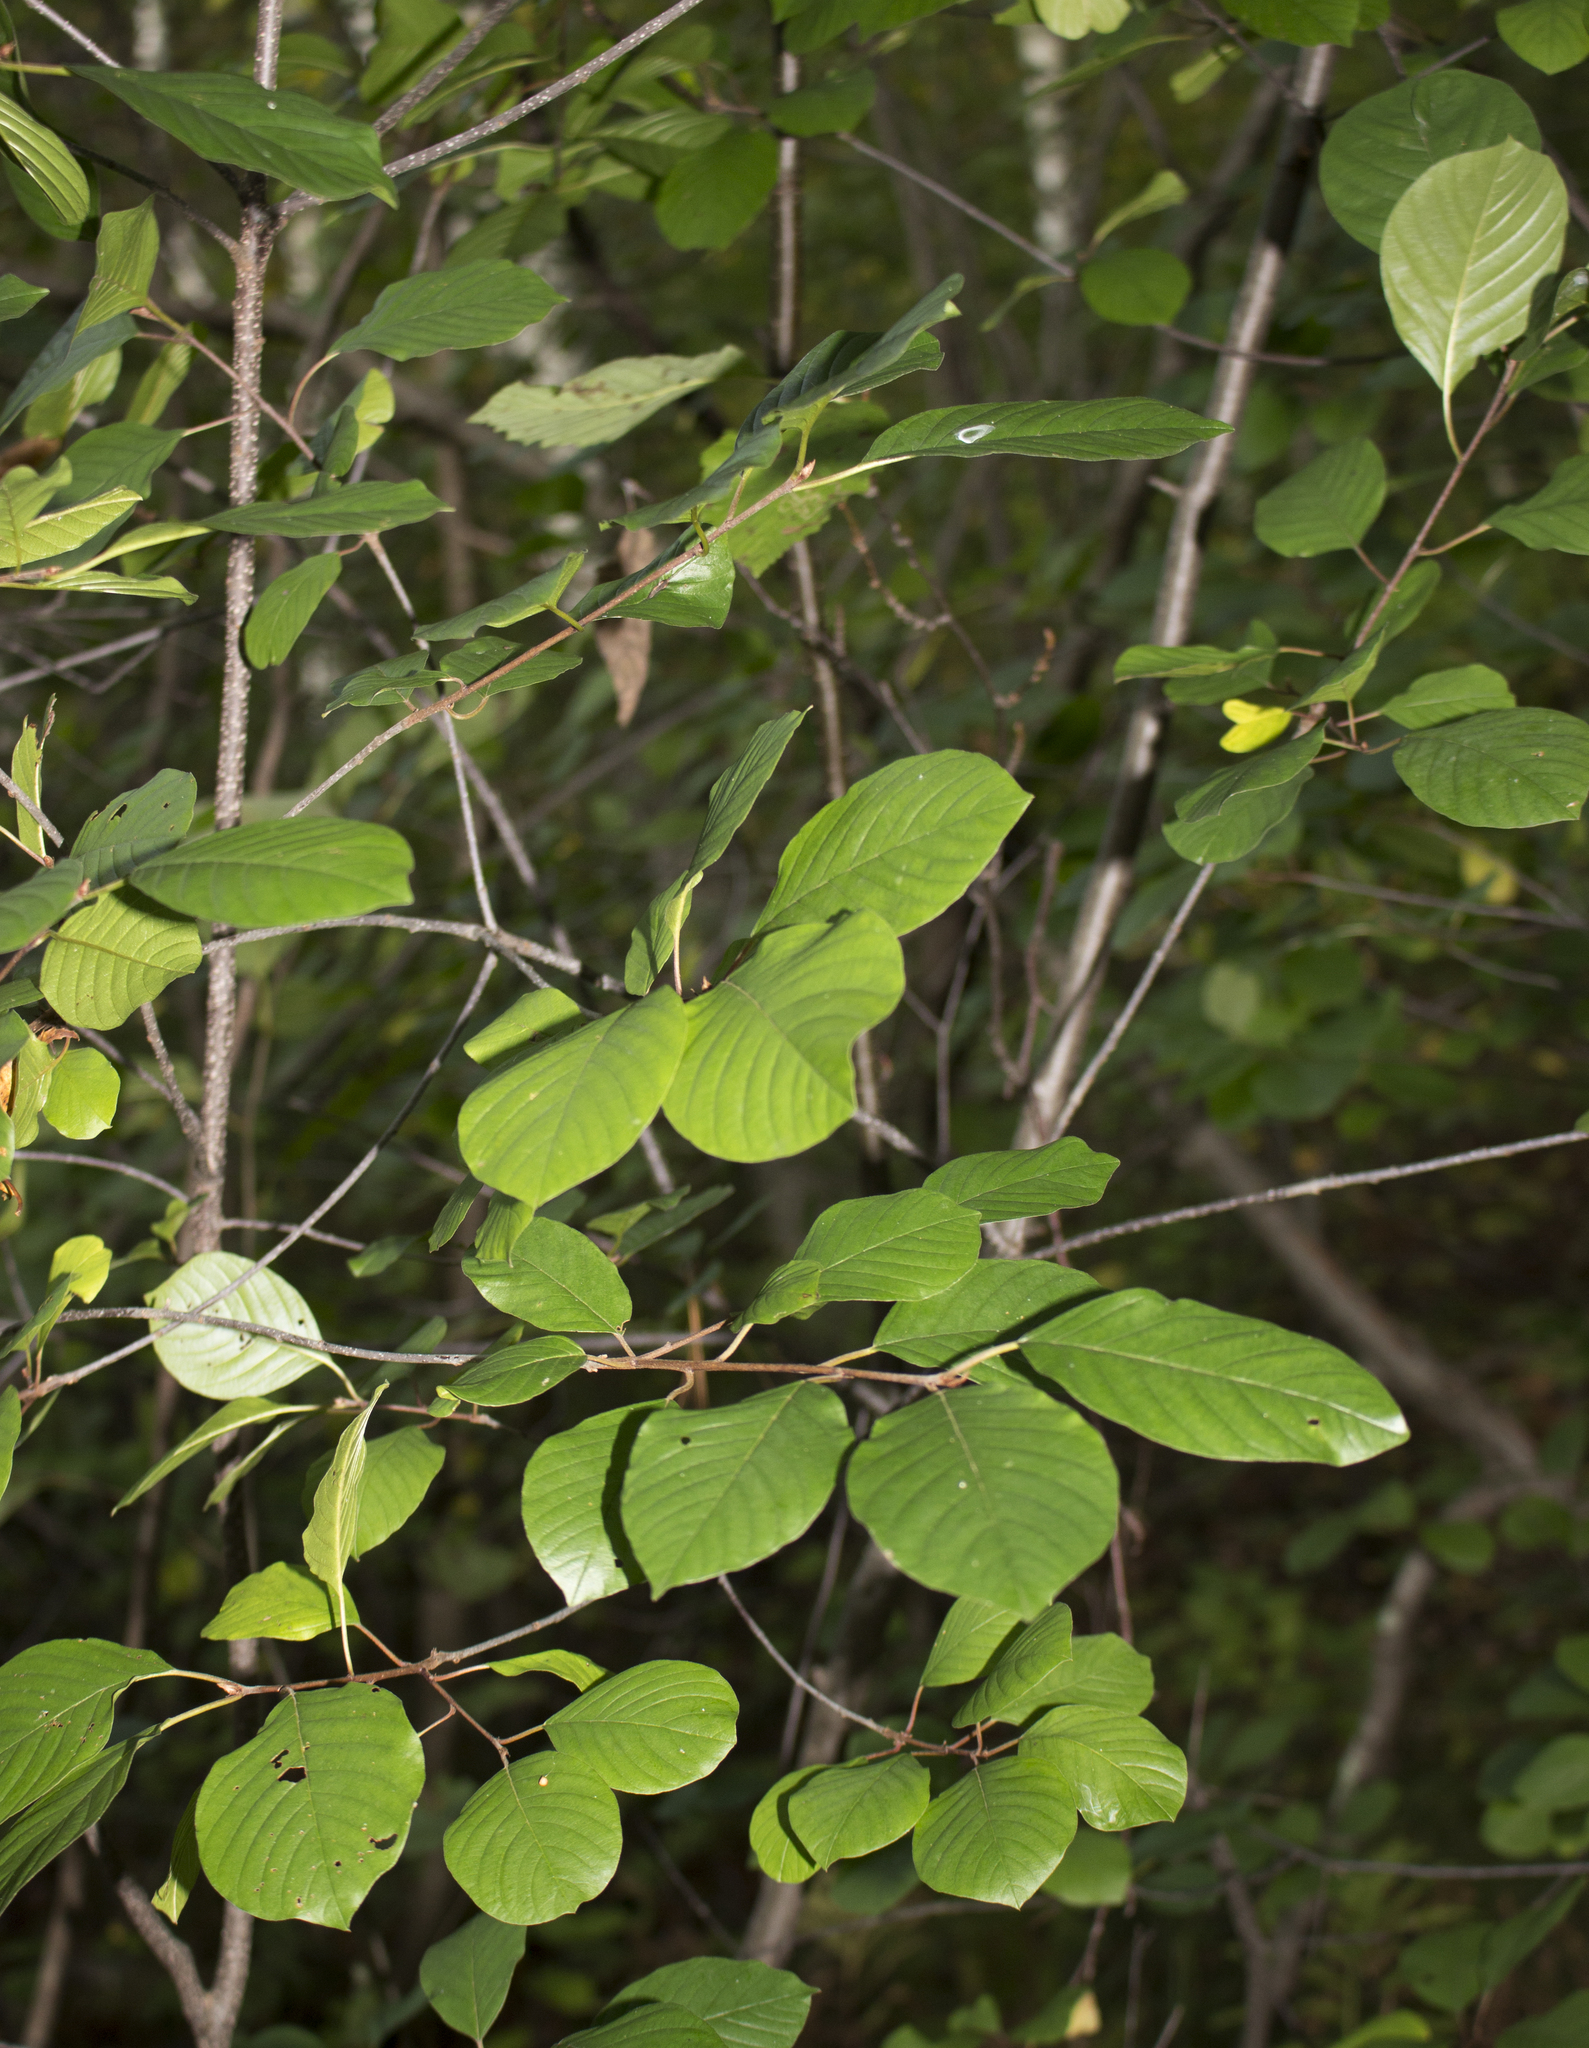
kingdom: Plantae
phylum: Tracheophyta
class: Magnoliopsida
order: Rosales
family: Rhamnaceae
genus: Frangula
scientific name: Frangula alnus
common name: Alder buckthorn
